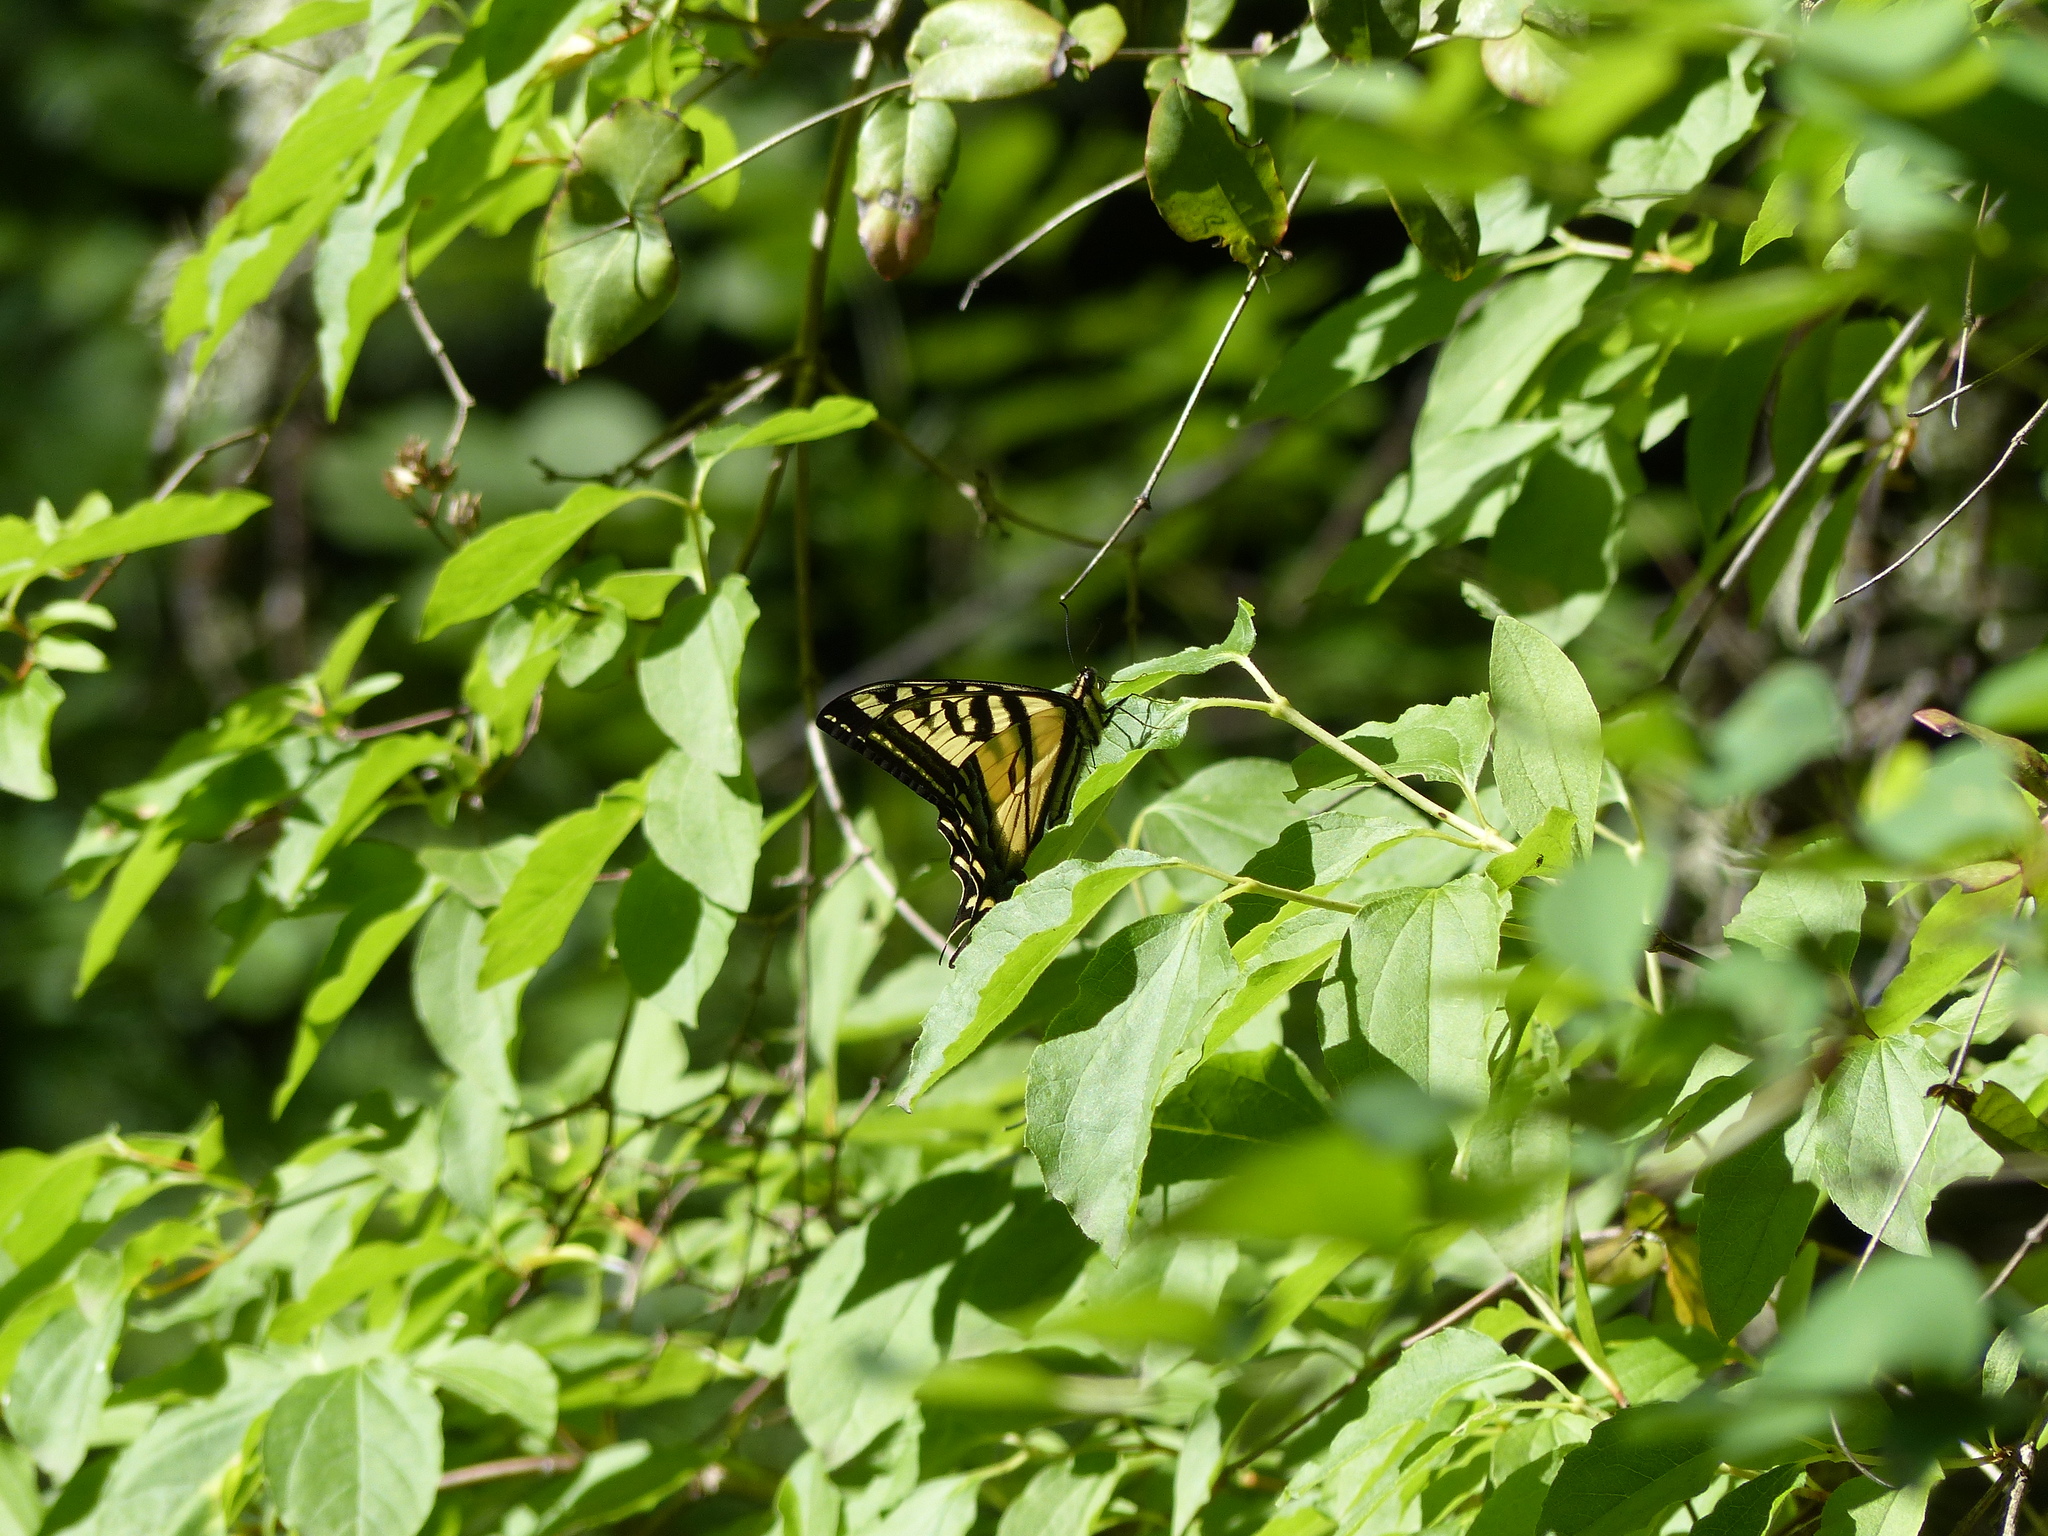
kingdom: Animalia
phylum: Arthropoda
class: Insecta
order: Lepidoptera
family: Papilionidae
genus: Papilio
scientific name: Papilio rutulus
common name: Western tiger swallowtail
